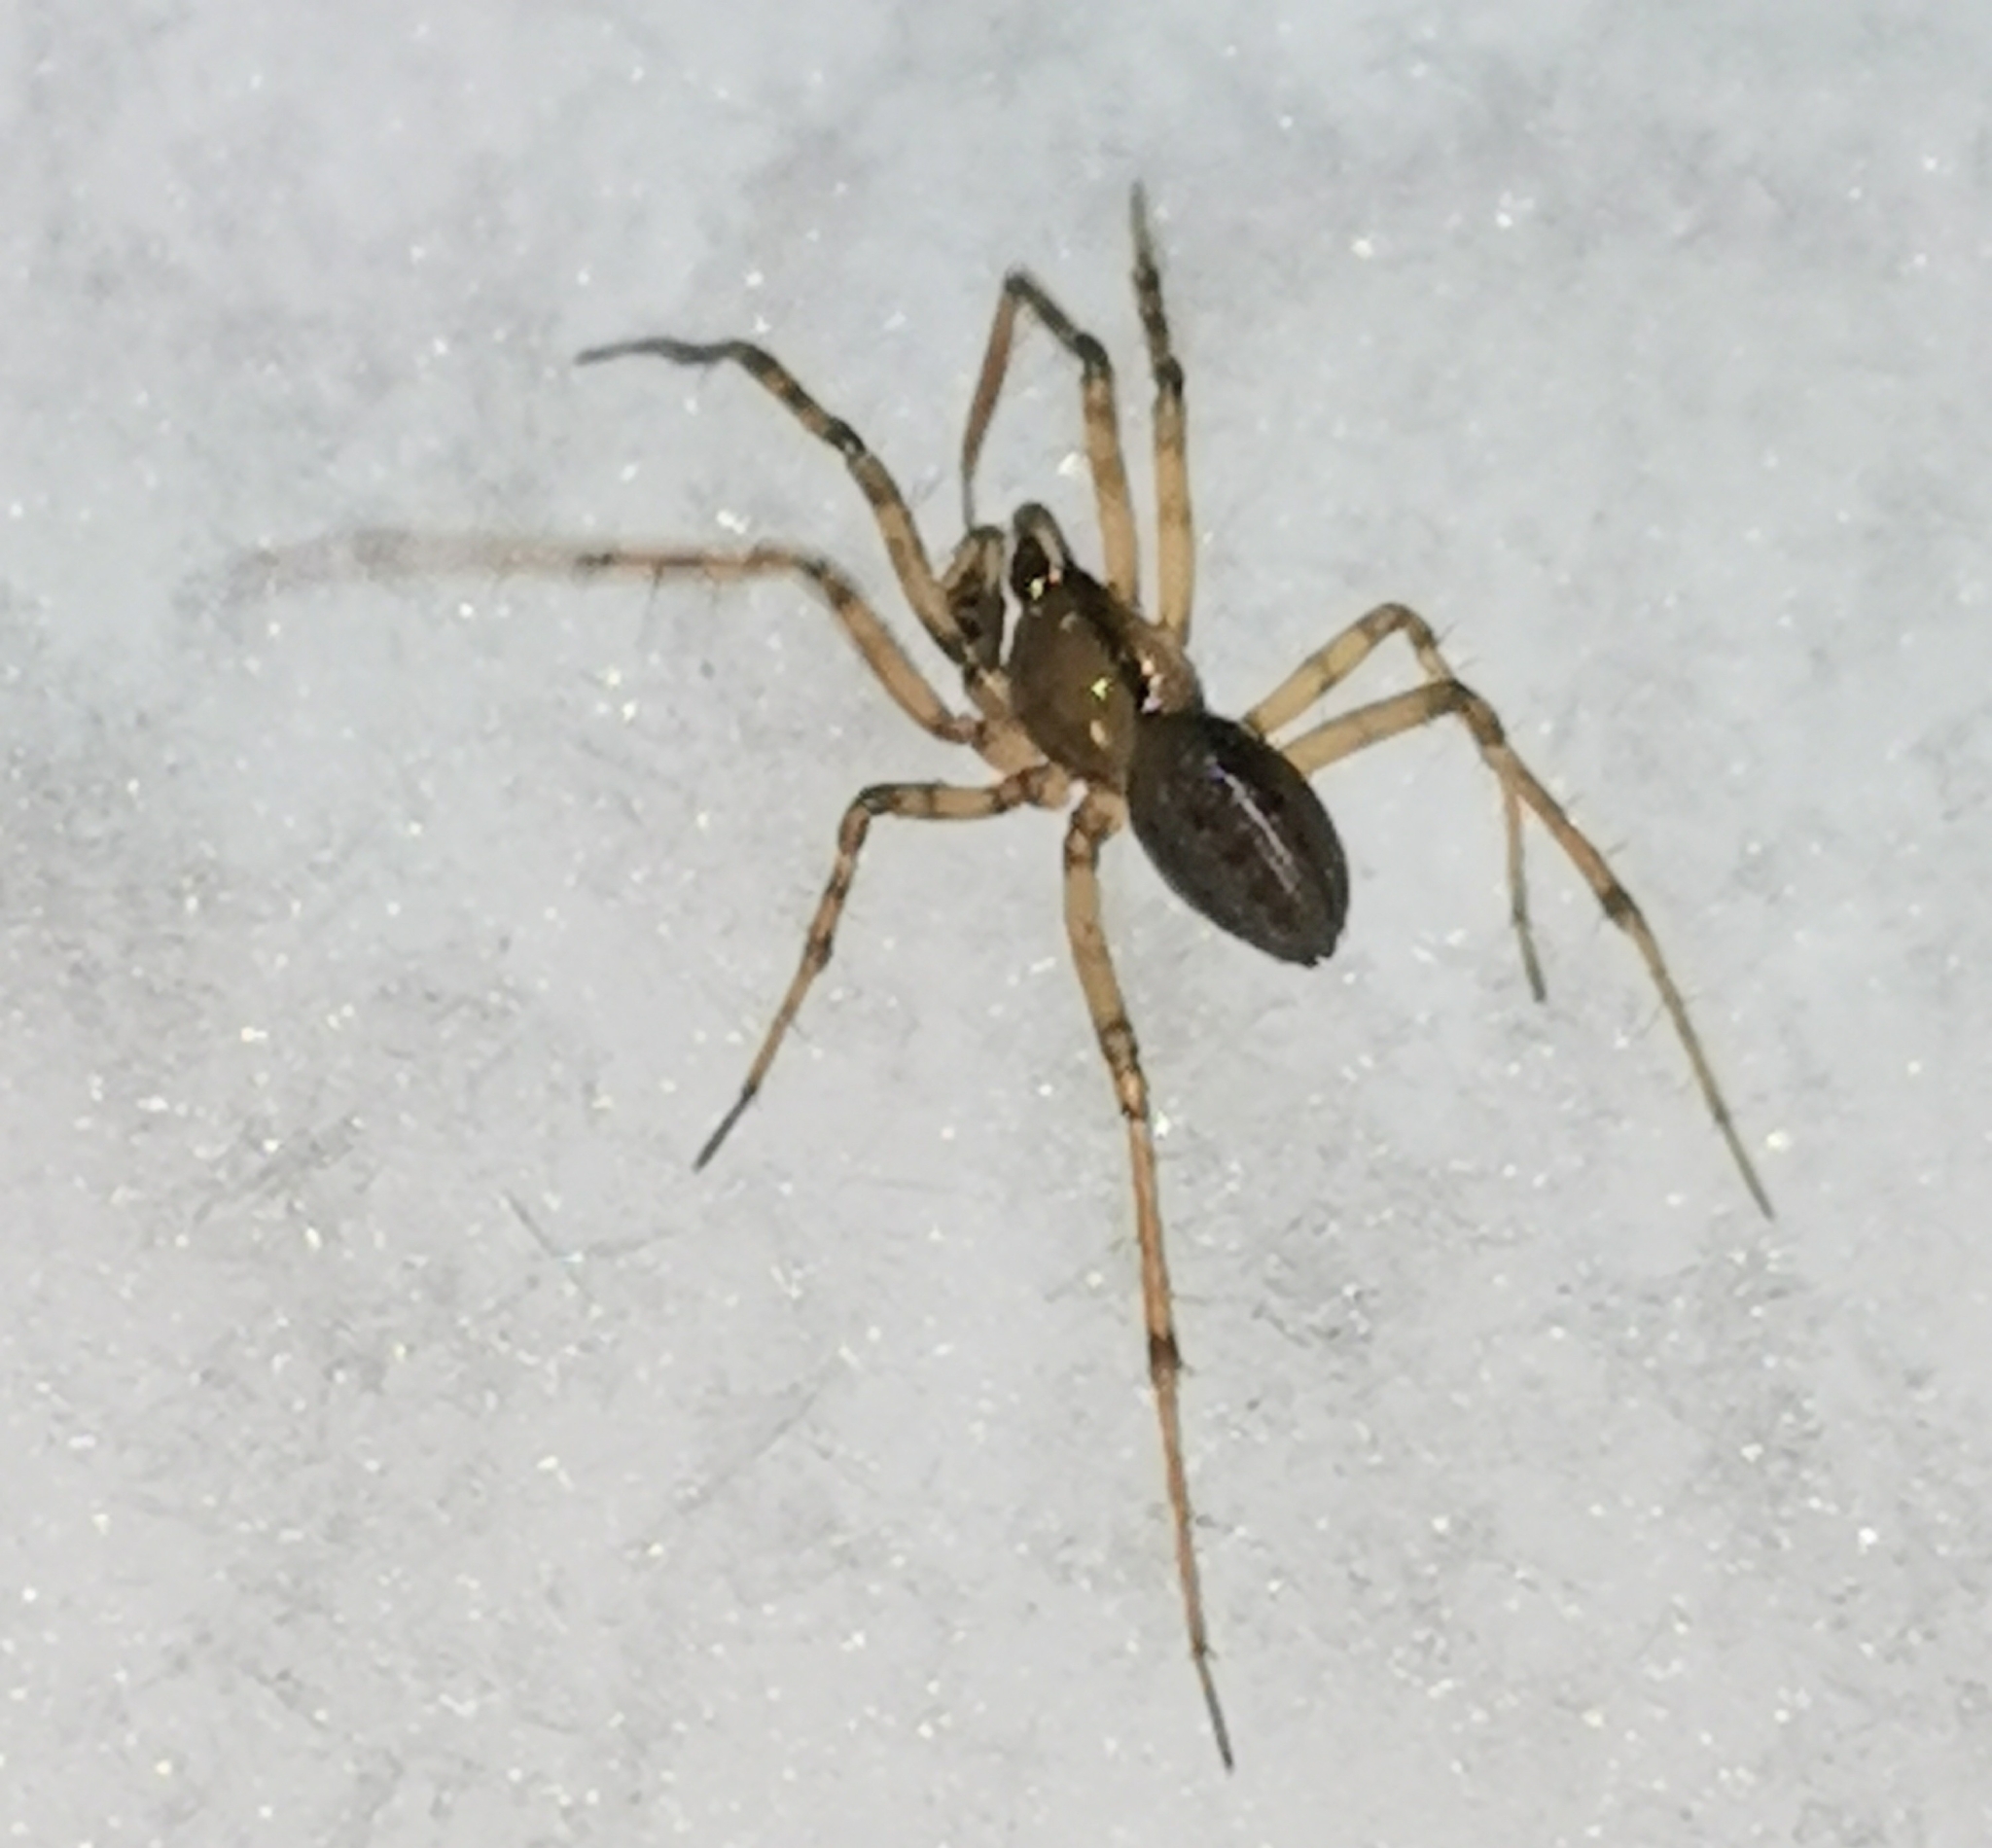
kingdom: Animalia
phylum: Arthropoda
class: Arachnida
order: Araneae
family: Linyphiidae
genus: Stemonyphantes
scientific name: Stemonyphantes lineatus
